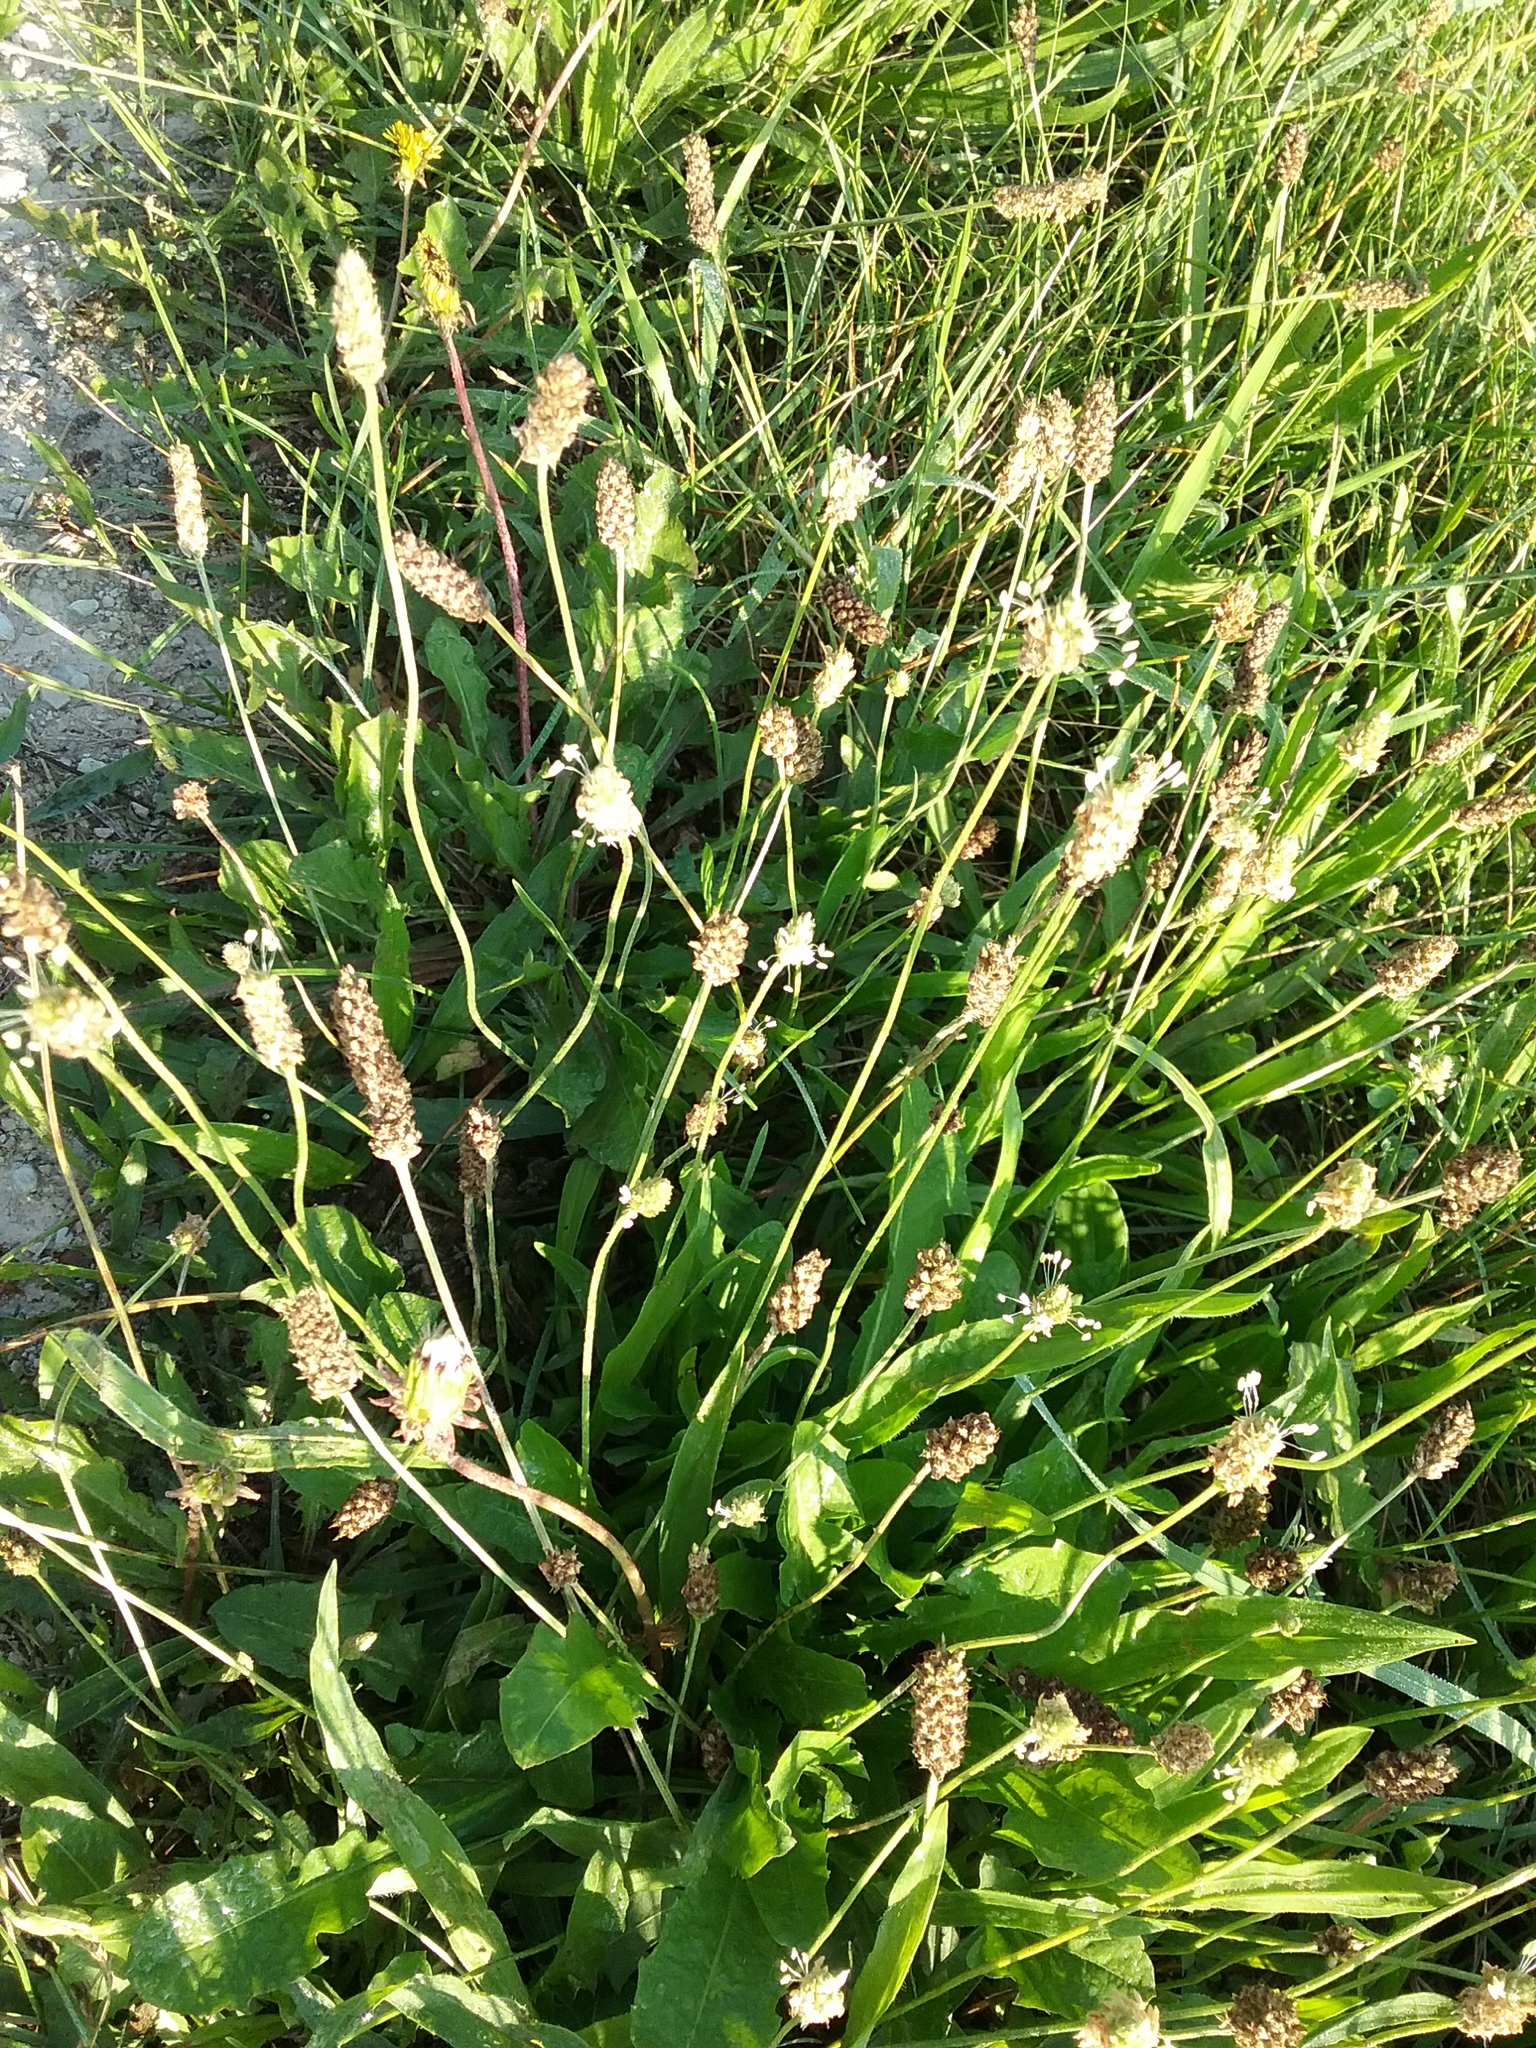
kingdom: Plantae
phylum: Tracheophyta
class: Magnoliopsida
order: Lamiales
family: Plantaginaceae
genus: Plantago
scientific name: Plantago lanceolata
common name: Ribwort plantain
